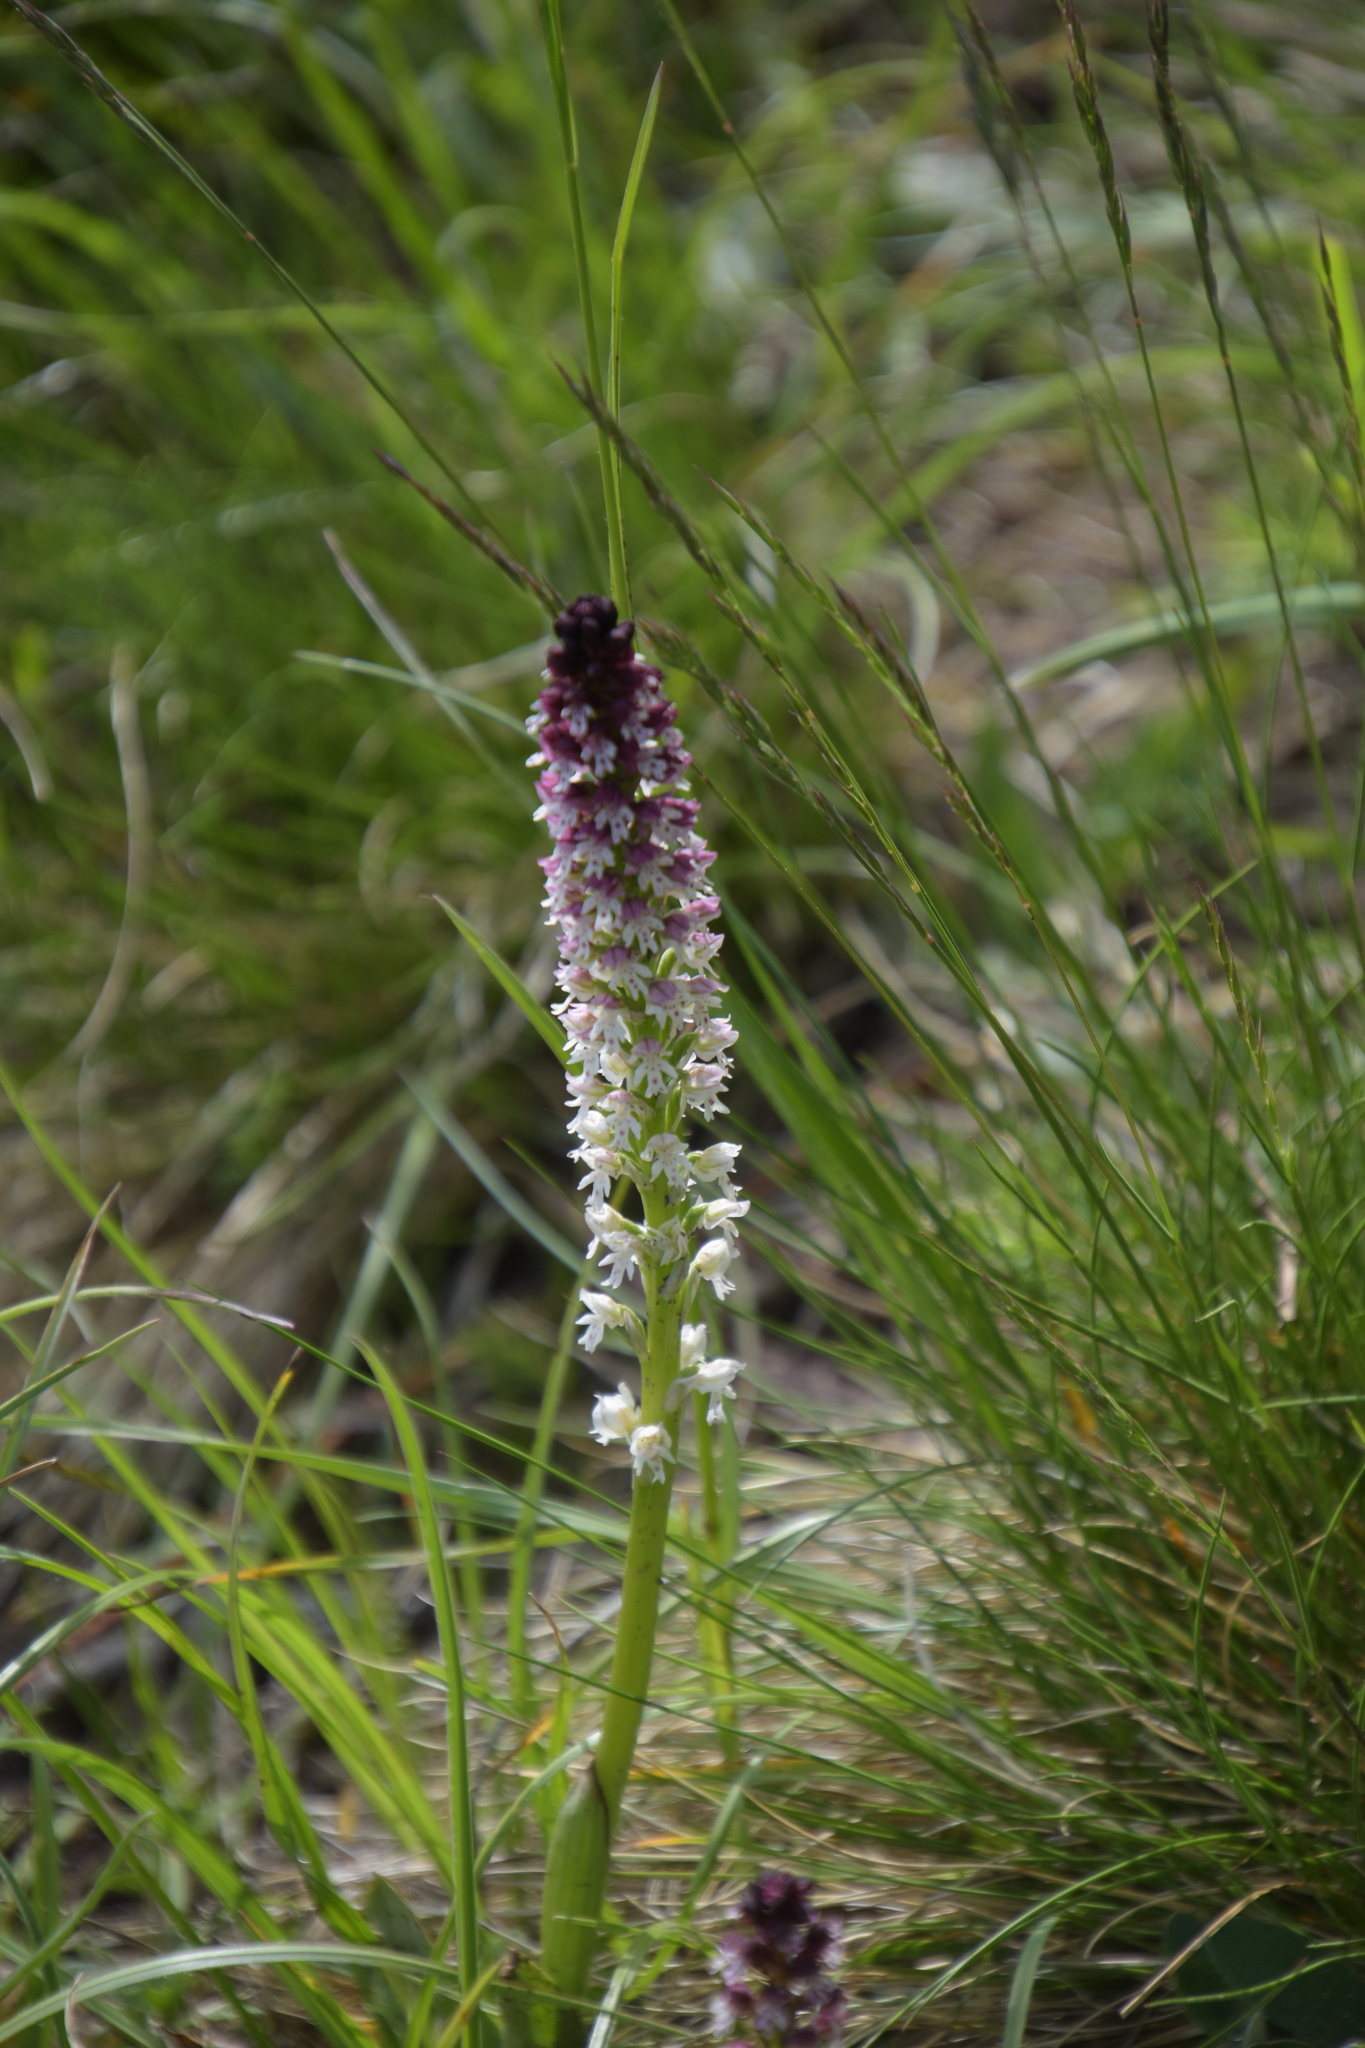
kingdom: Plantae
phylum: Tracheophyta
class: Liliopsida
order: Asparagales
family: Orchidaceae
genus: Neotinea
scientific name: Neotinea ustulata
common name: Burnt orchid
